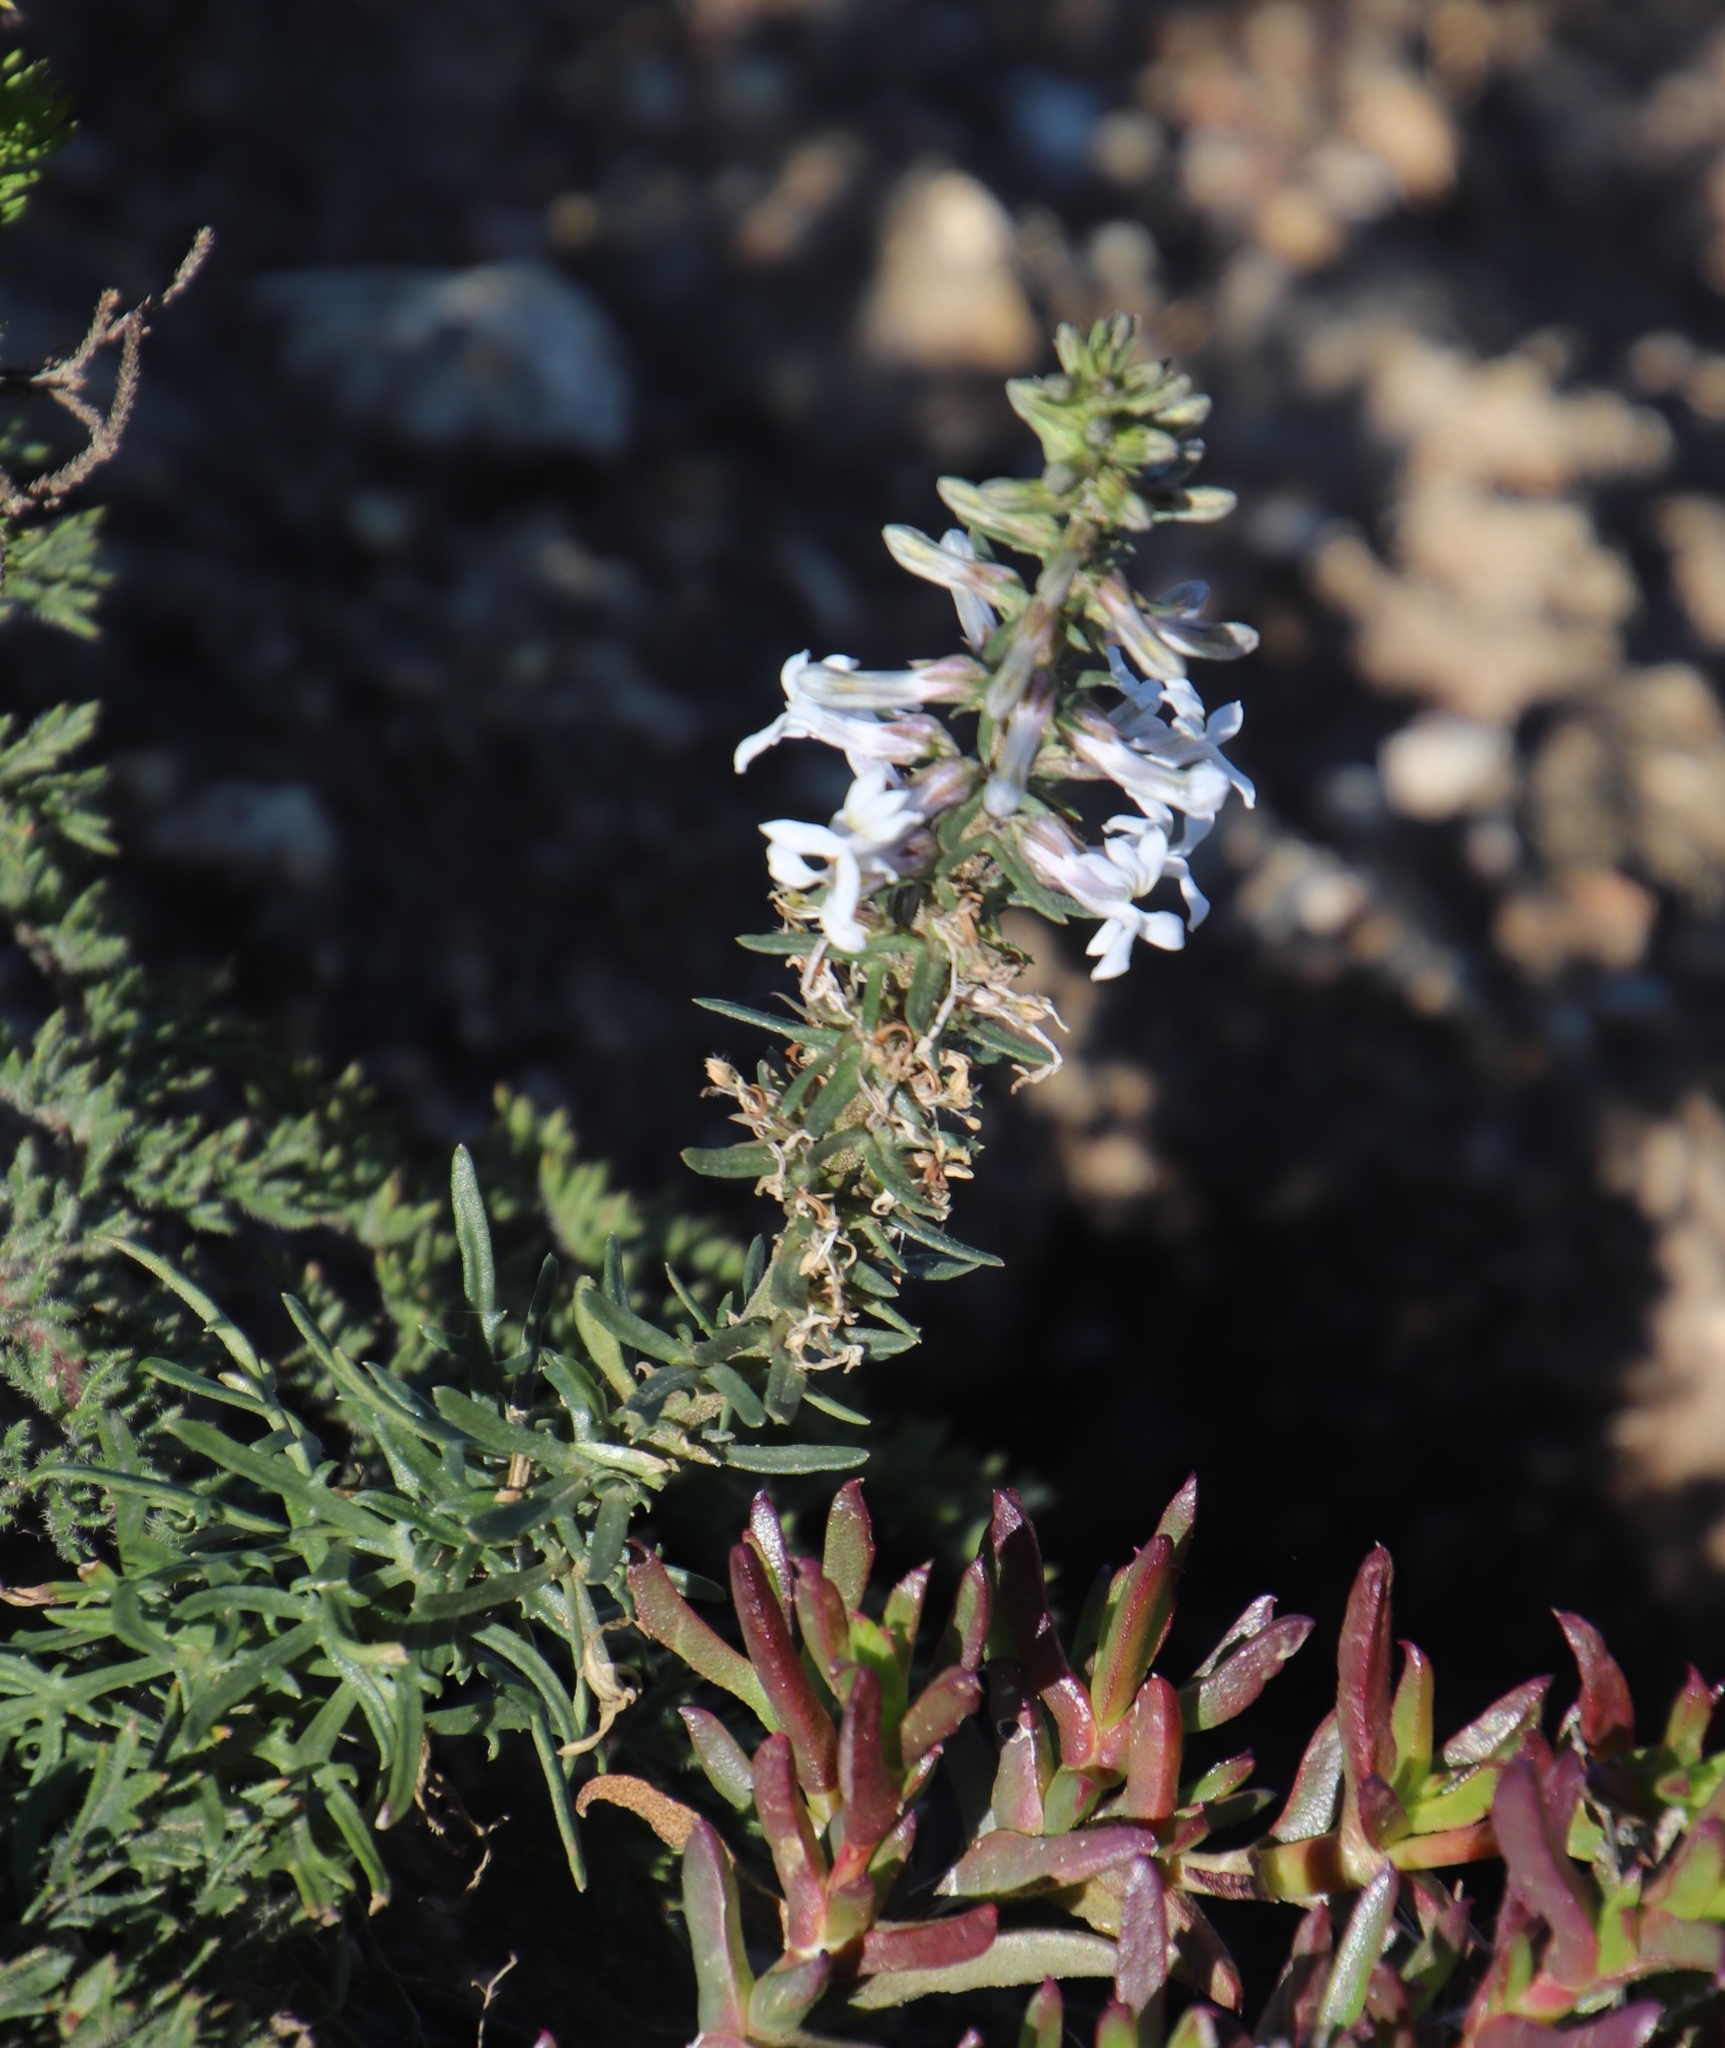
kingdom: Plantae
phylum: Tracheophyta
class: Magnoliopsida
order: Asterales
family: Campanulaceae
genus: Cyphia
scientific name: Cyphia bulbosa
